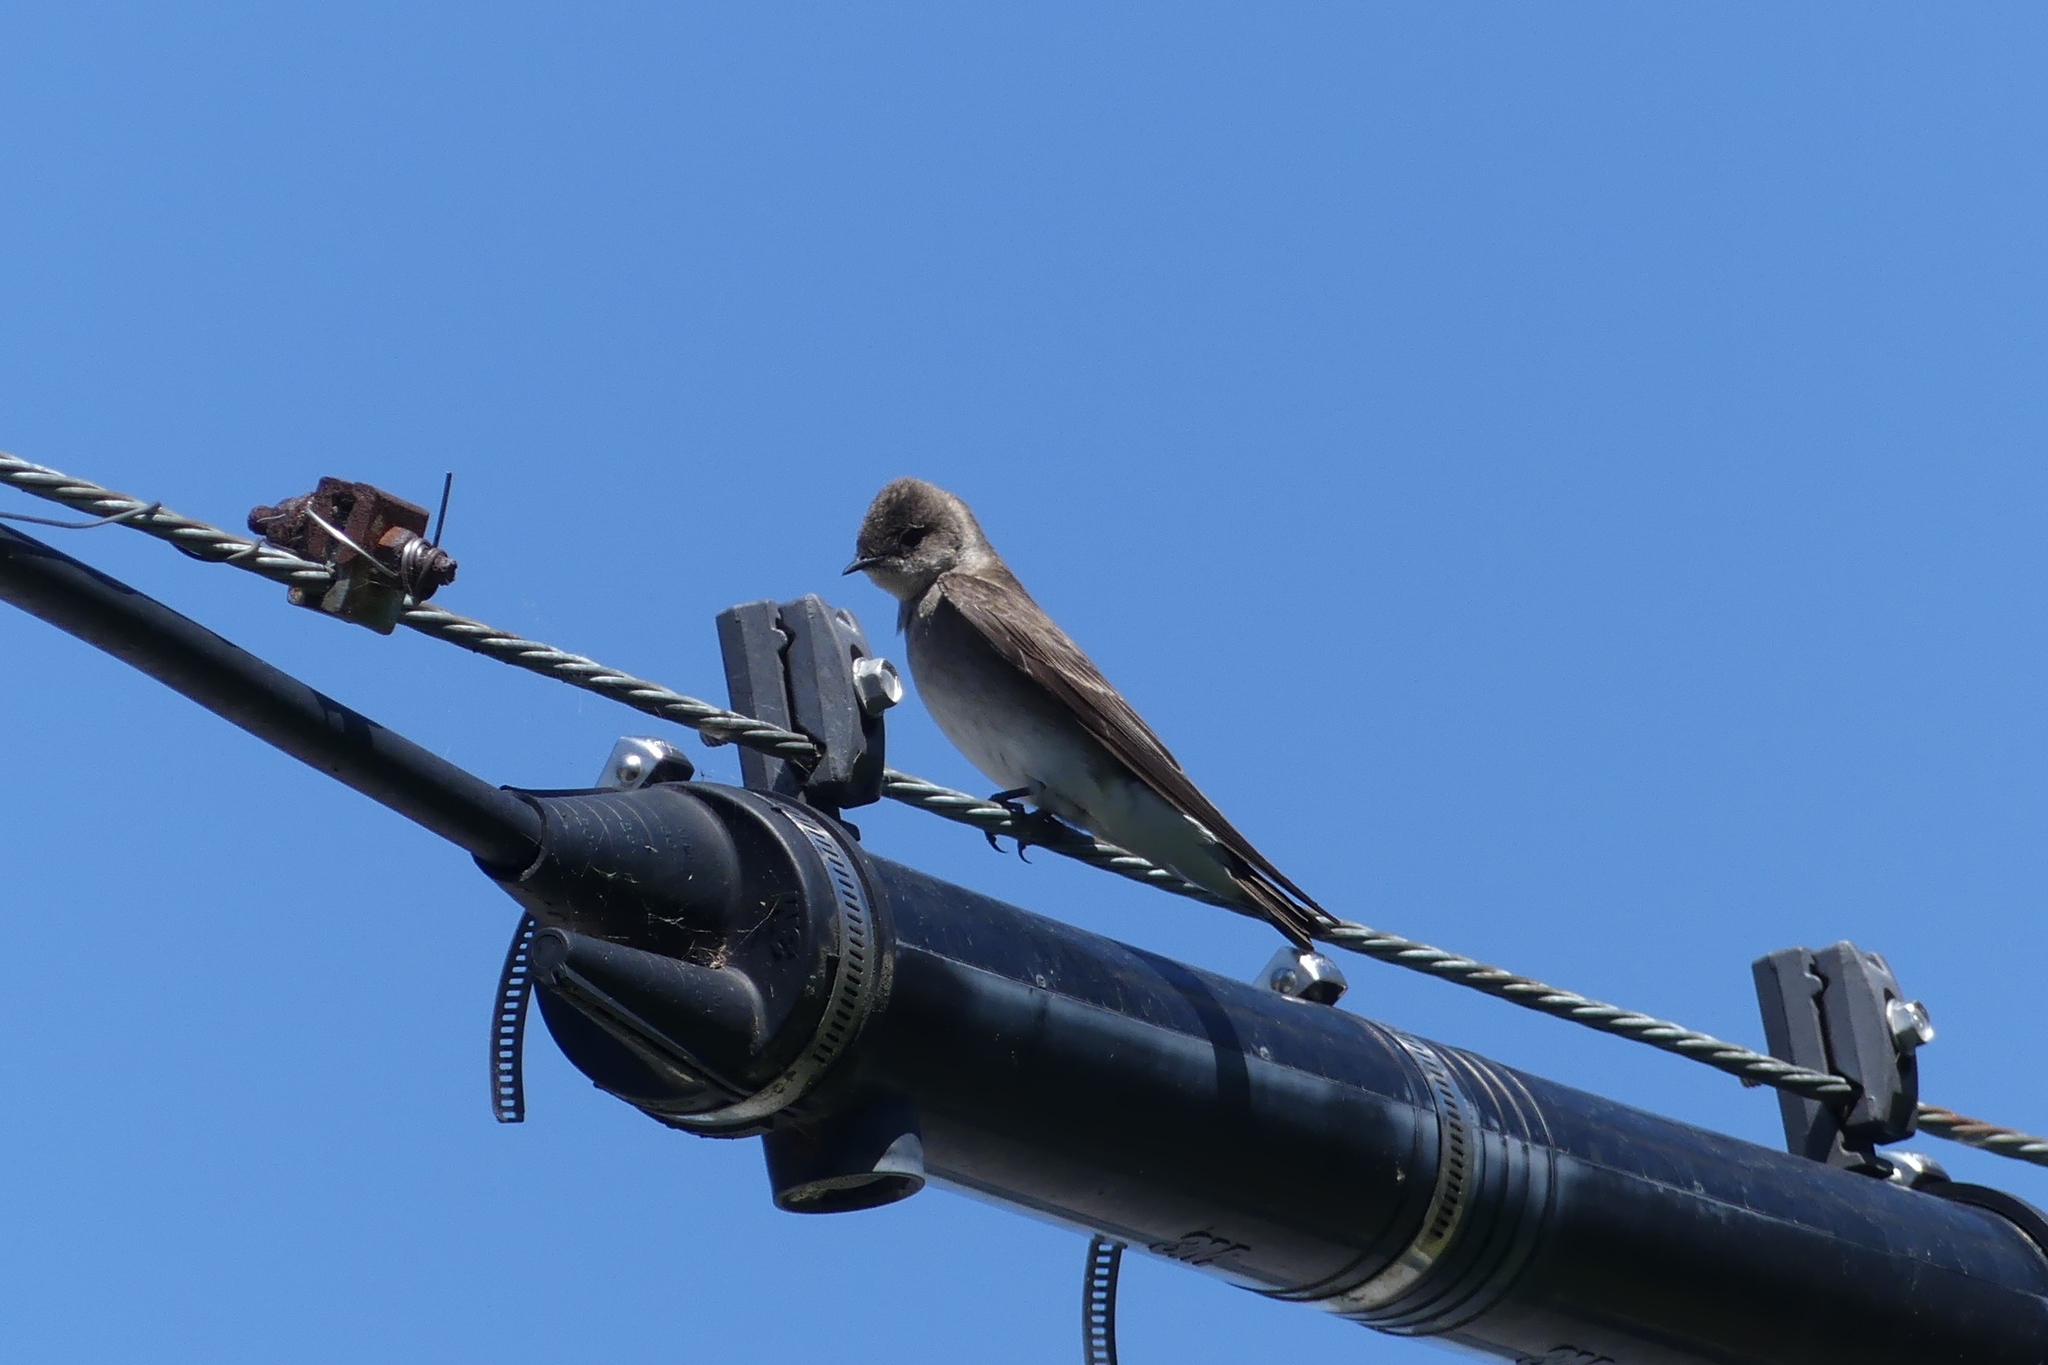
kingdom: Animalia
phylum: Chordata
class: Aves
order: Passeriformes
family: Hirundinidae
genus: Stelgidopteryx
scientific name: Stelgidopteryx serripennis
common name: Northern rough-winged swallow
